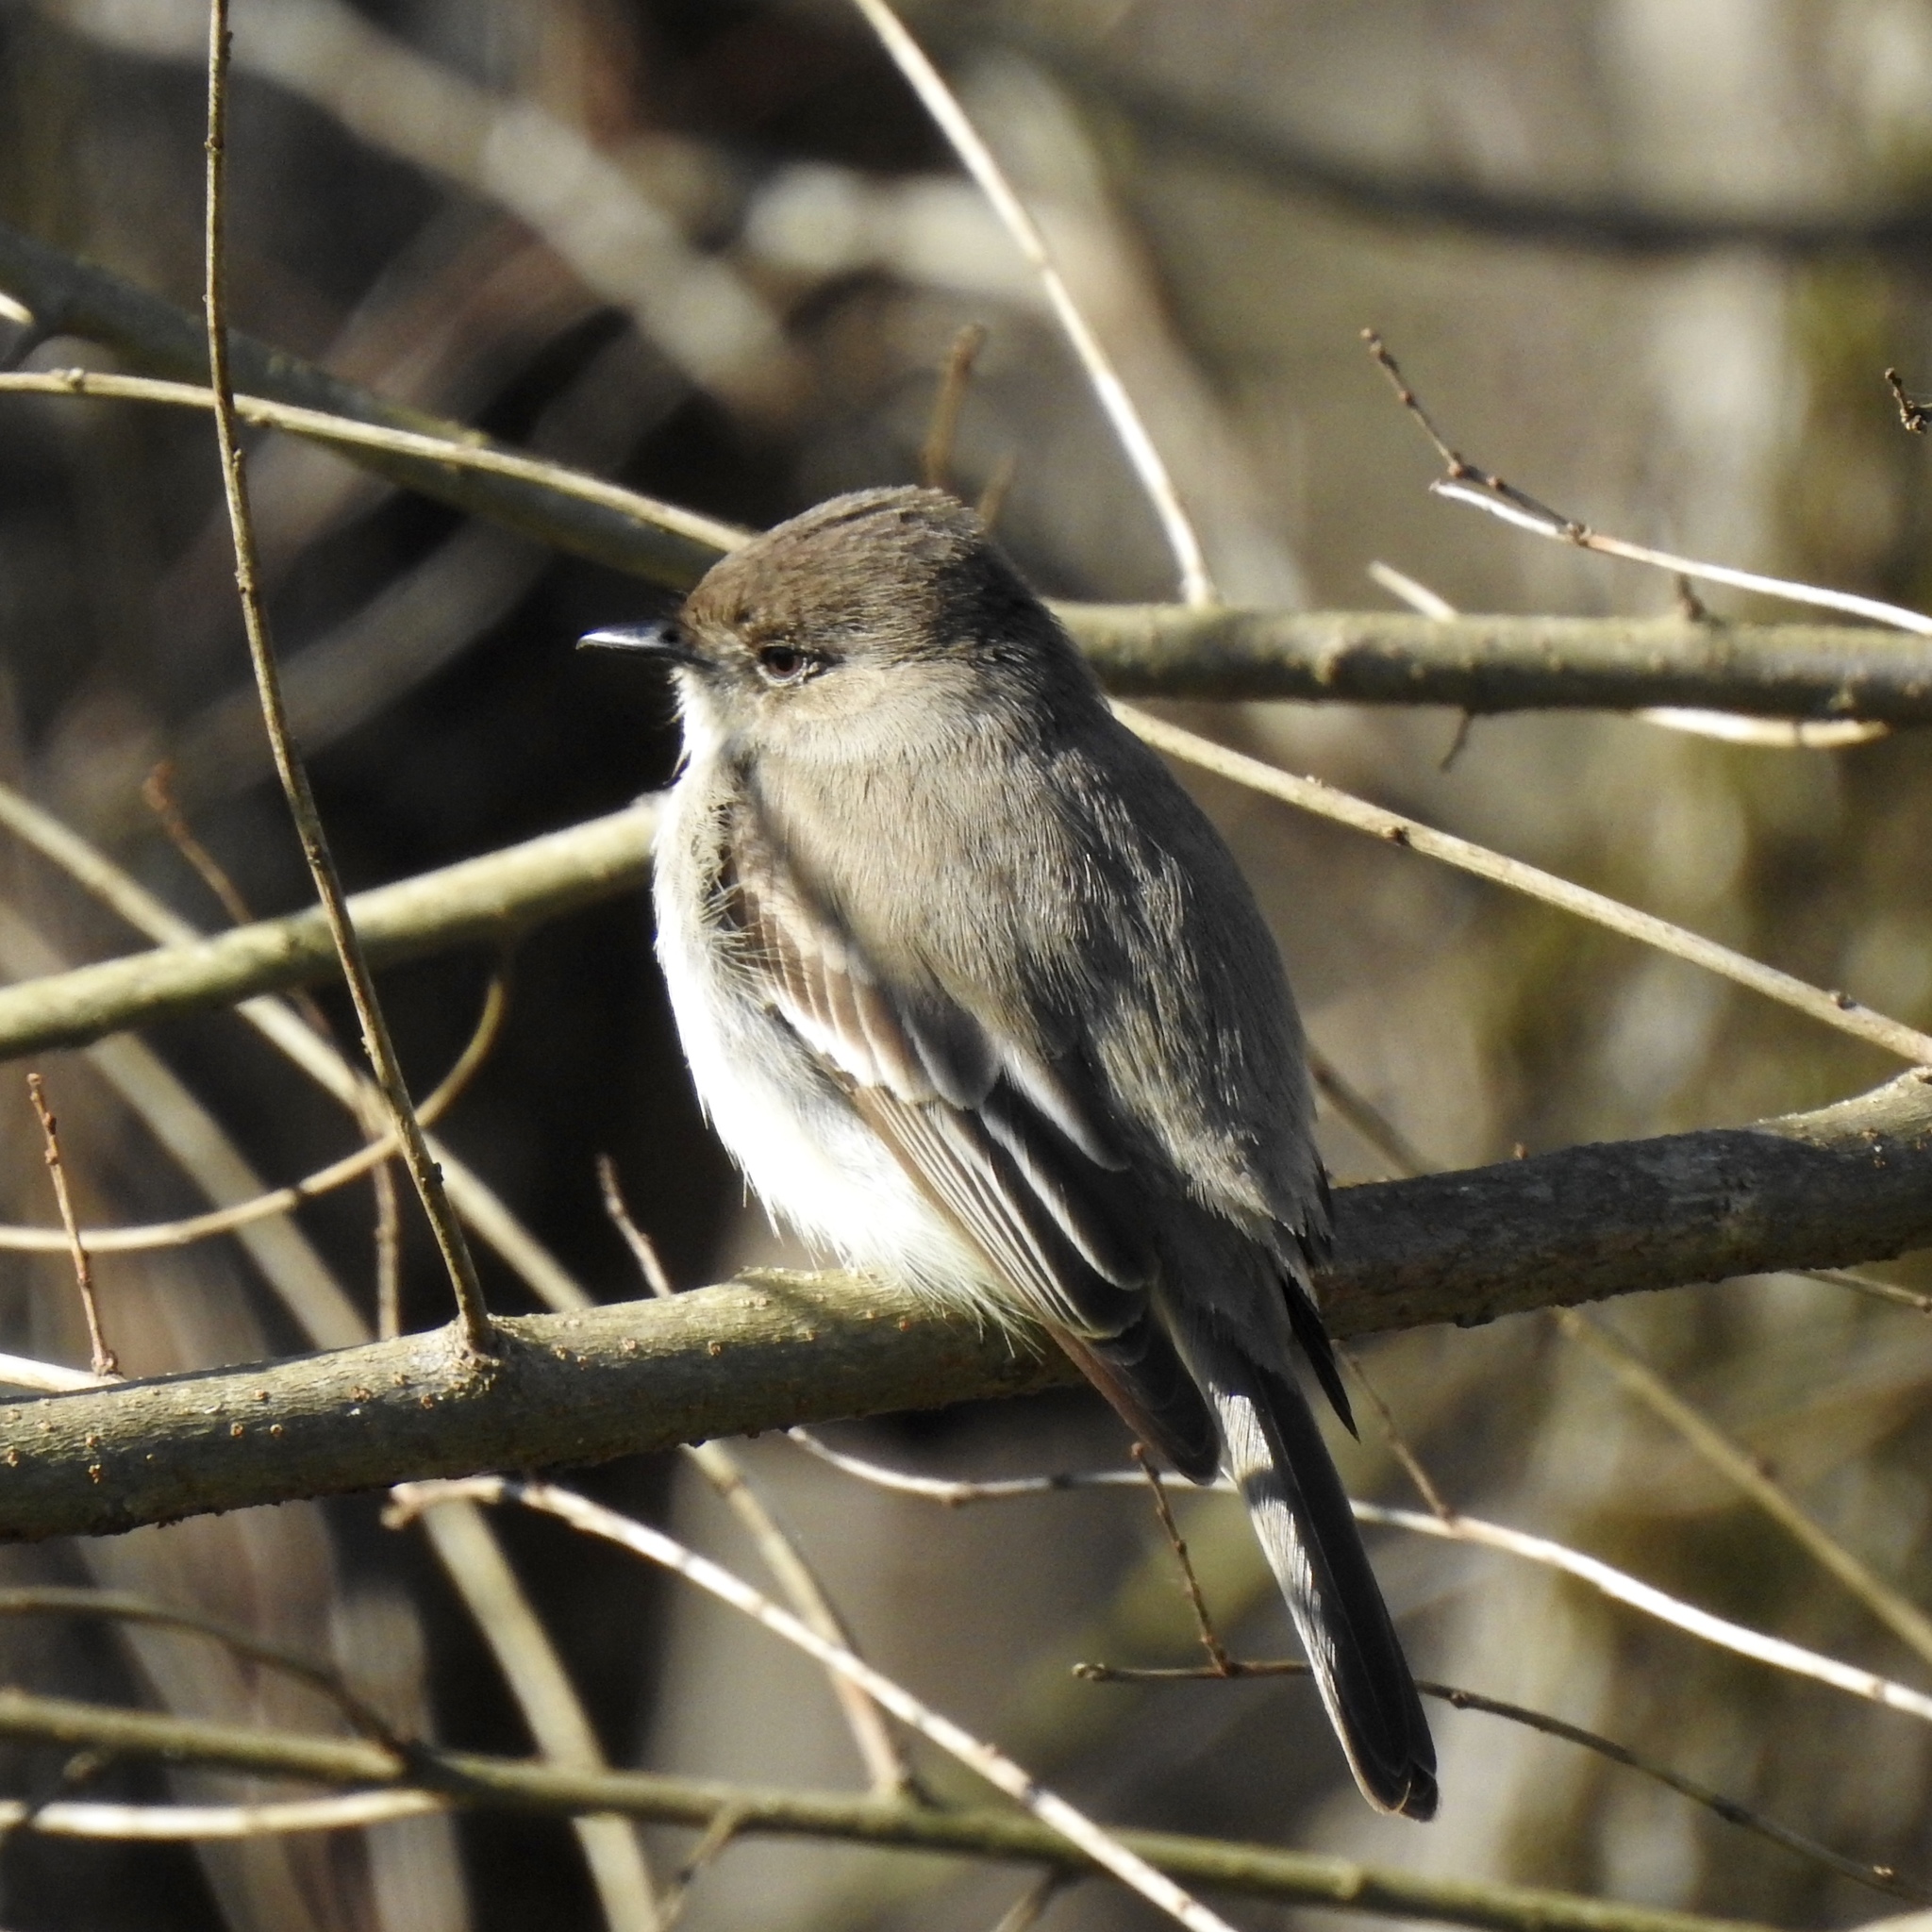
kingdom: Animalia
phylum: Chordata
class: Aves
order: Passeriformes
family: Tyrannidae
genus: Sayornis
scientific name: Sayornis phoebe
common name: Eastern phoebe
